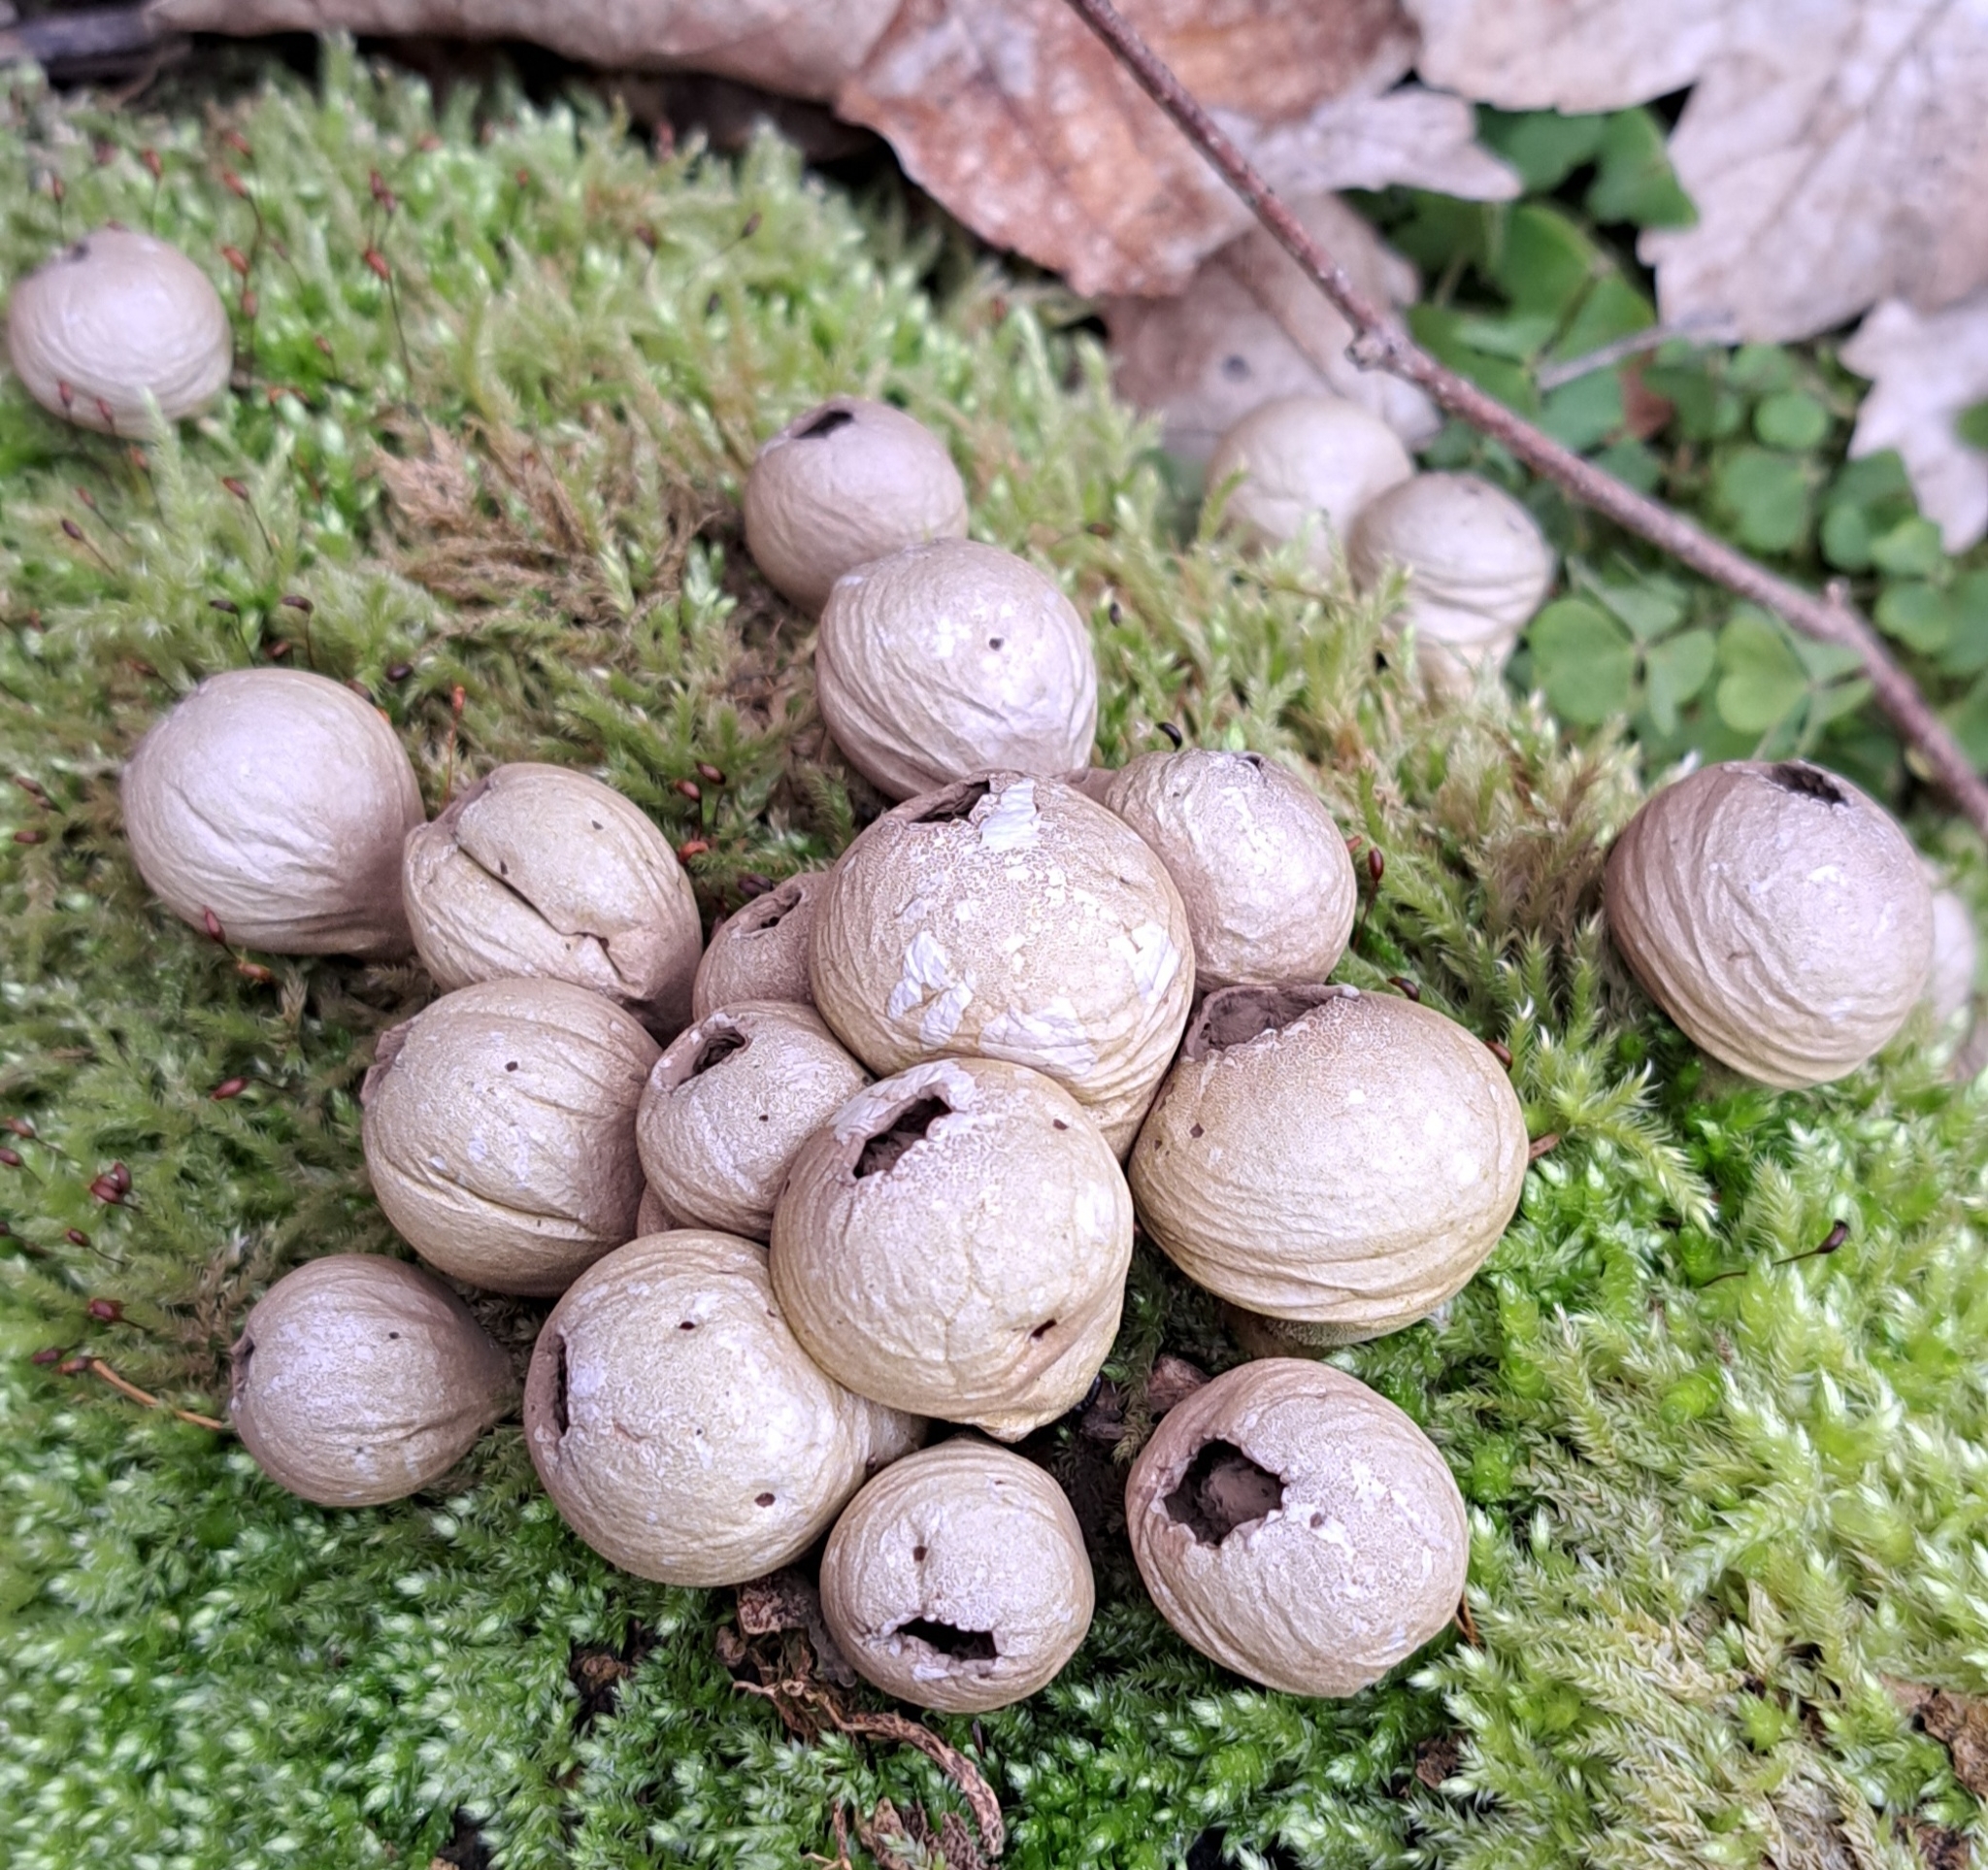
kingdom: Fungi
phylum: Basidiomycota
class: Agaricomycetes
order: Agaricales
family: Lycoperdaceae
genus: Apioperdon
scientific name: Apioperdon pyriforme
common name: Pear-shaped puffball
